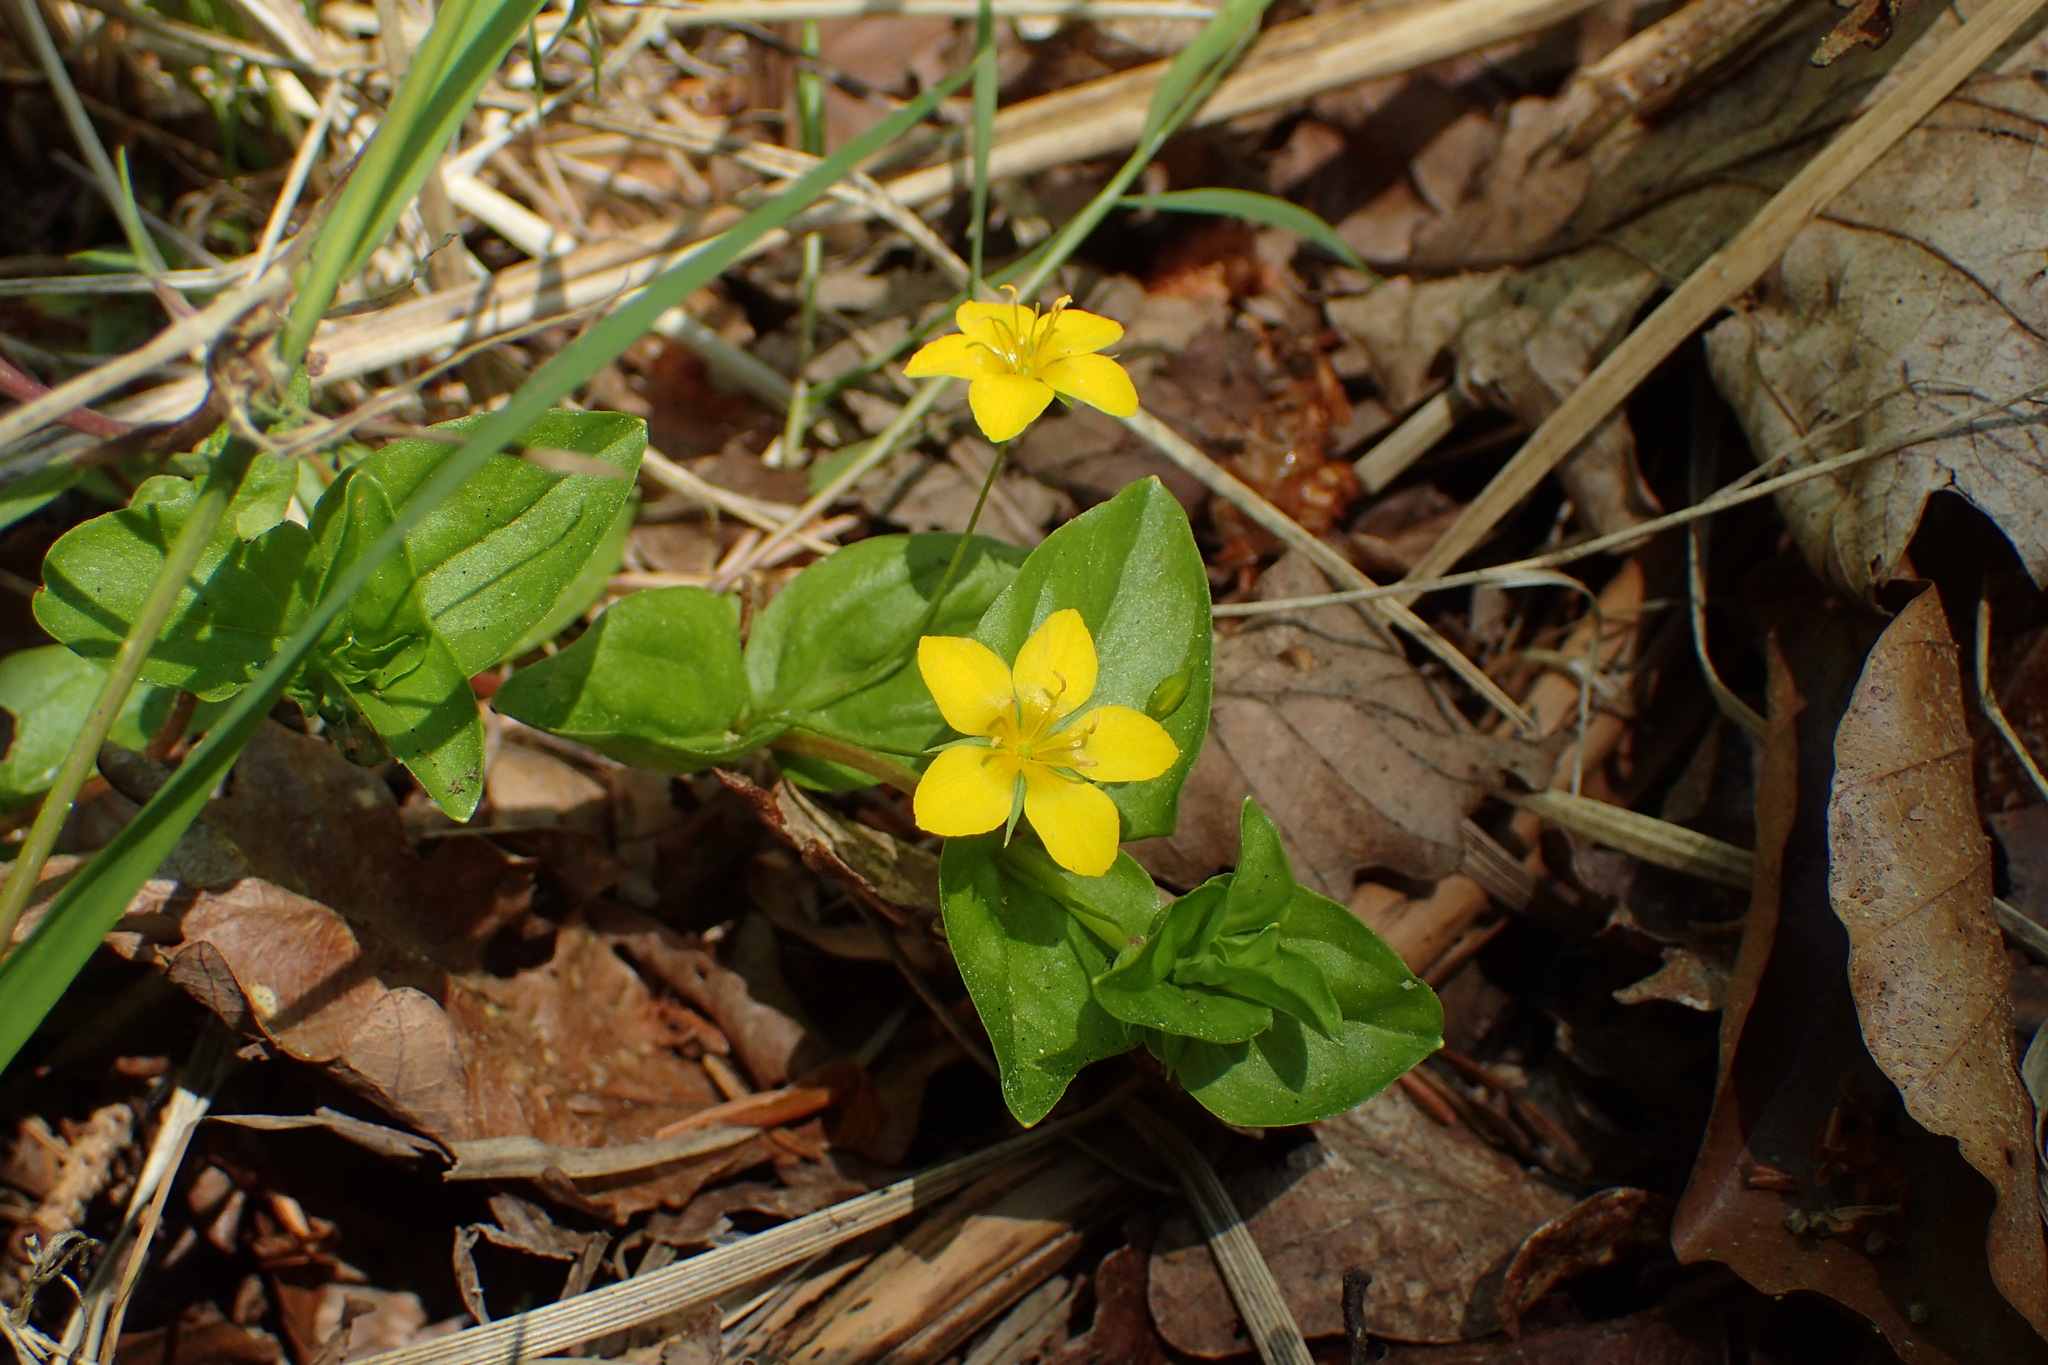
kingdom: Plantae
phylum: Tracheophyta
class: Magnoliopsida
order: Ericales
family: Primulaceae
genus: Lysimachia
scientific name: Lysimachia nemorum
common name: Yellow pimpernel
